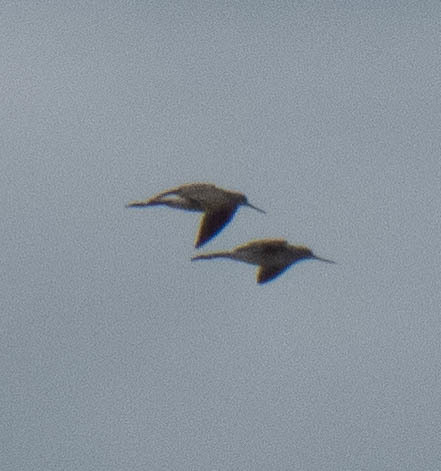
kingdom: Animalia
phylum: Chordata
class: Aves
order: Charadriiformes
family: Scolopacidae
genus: Tringa
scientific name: Tringa melanoleuca
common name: Greater yellowlegs
